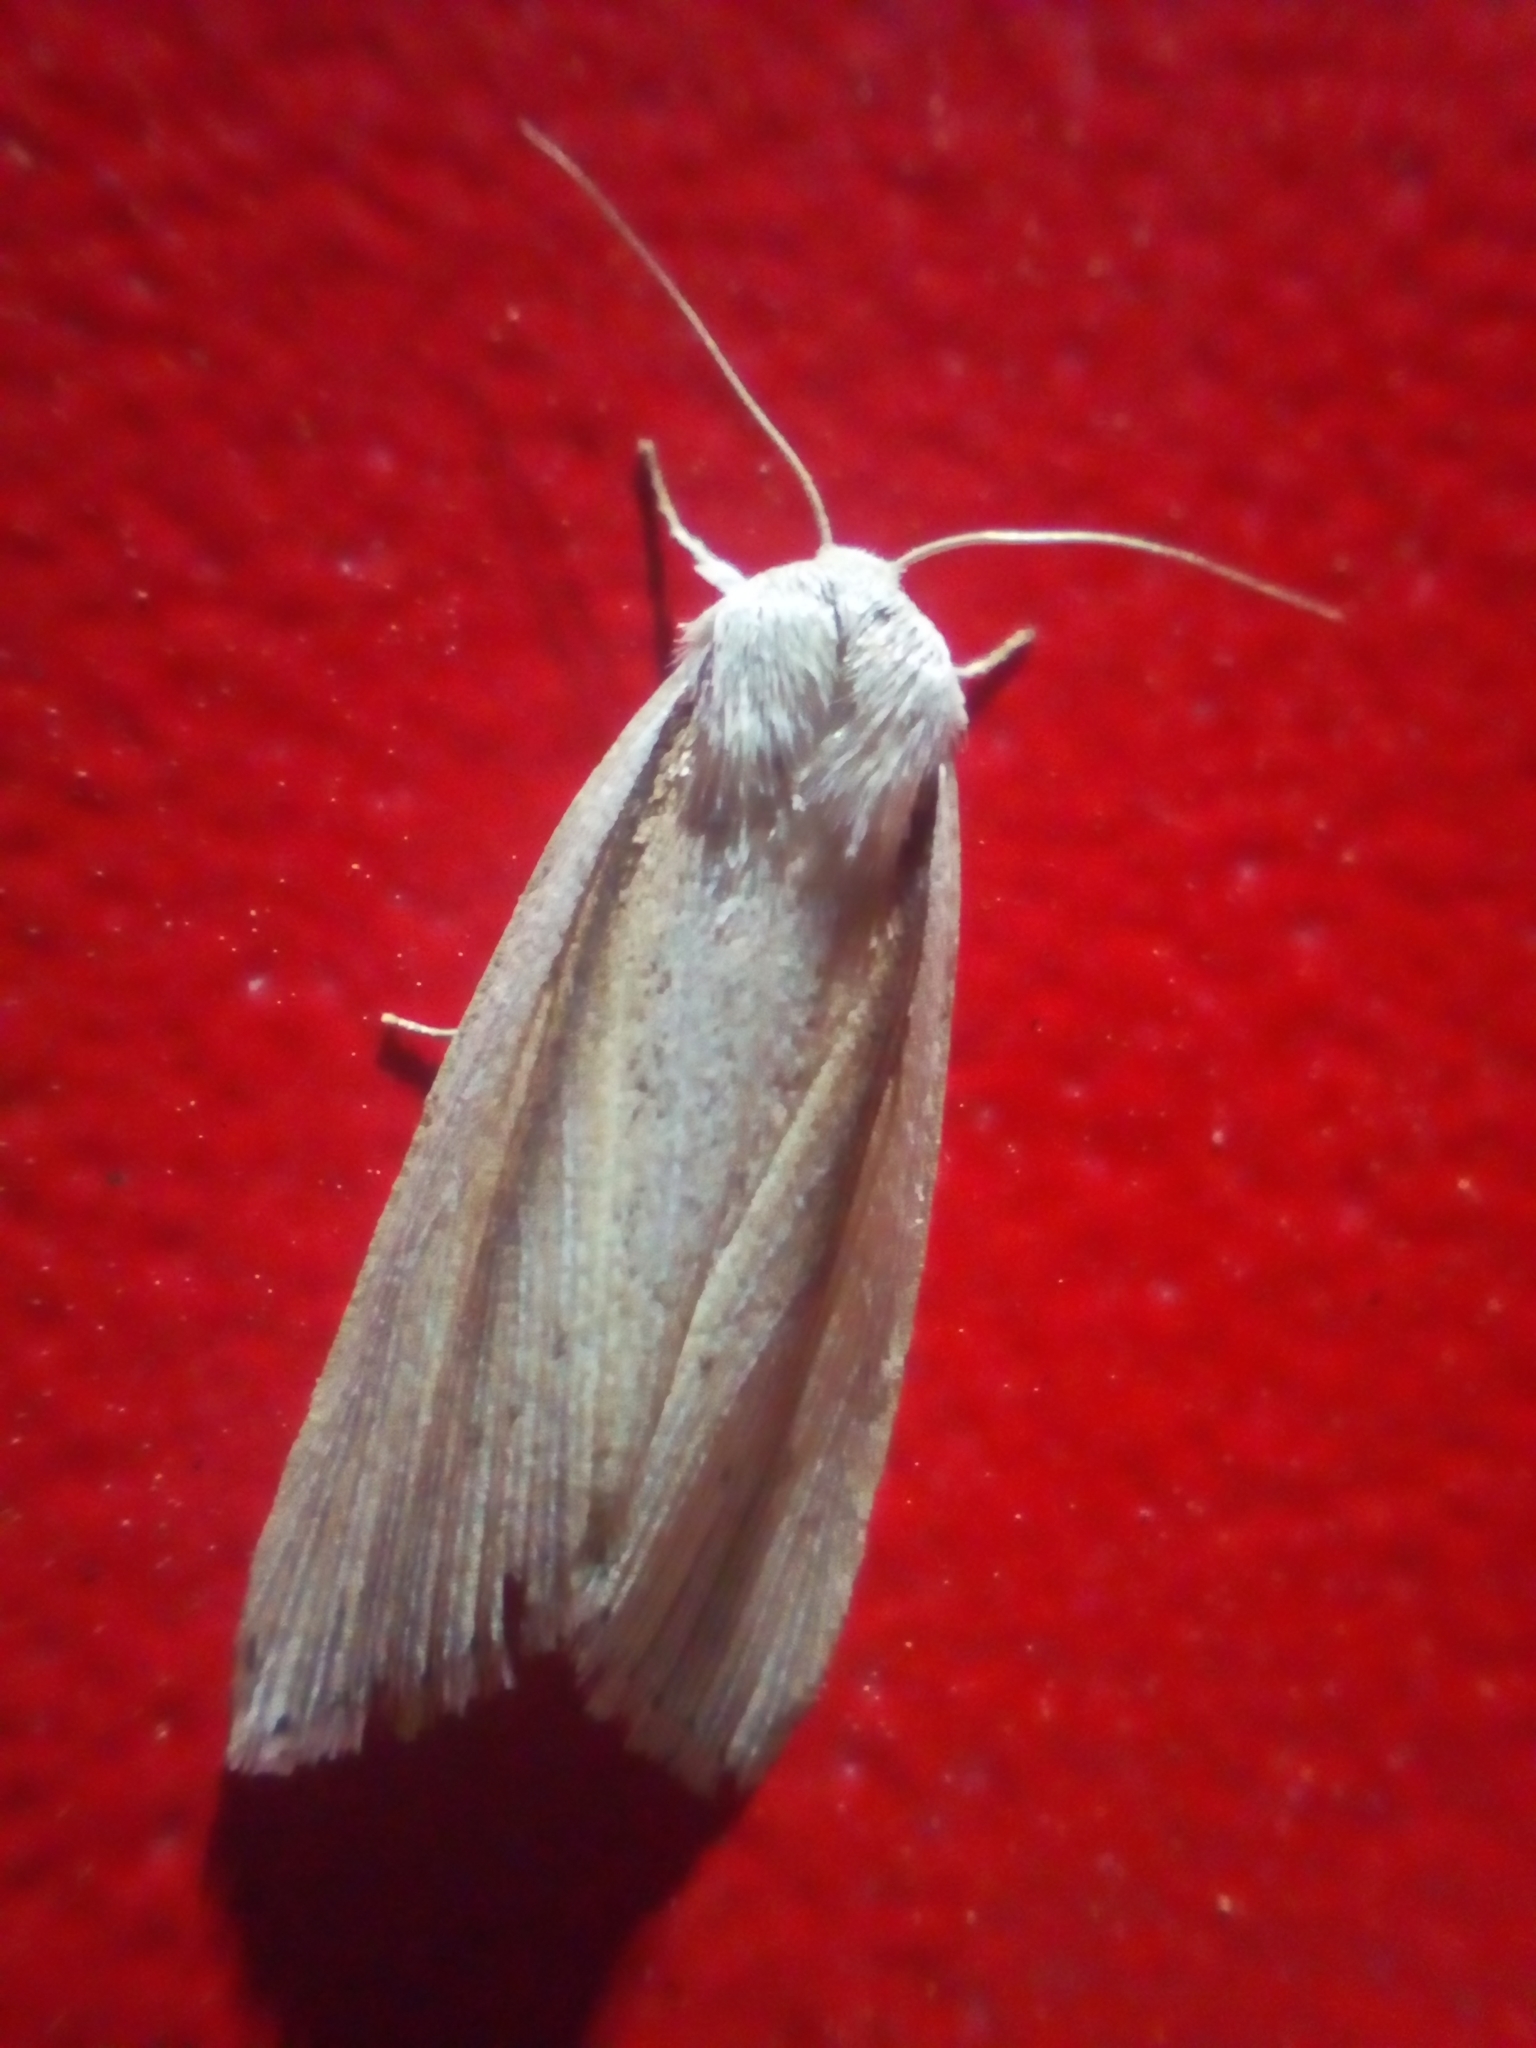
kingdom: Animalia
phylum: Arthropoda
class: Insecta
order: Lepidoptera
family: Noctuidae
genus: Senta
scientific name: Senta flammea
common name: Flame wainscot
